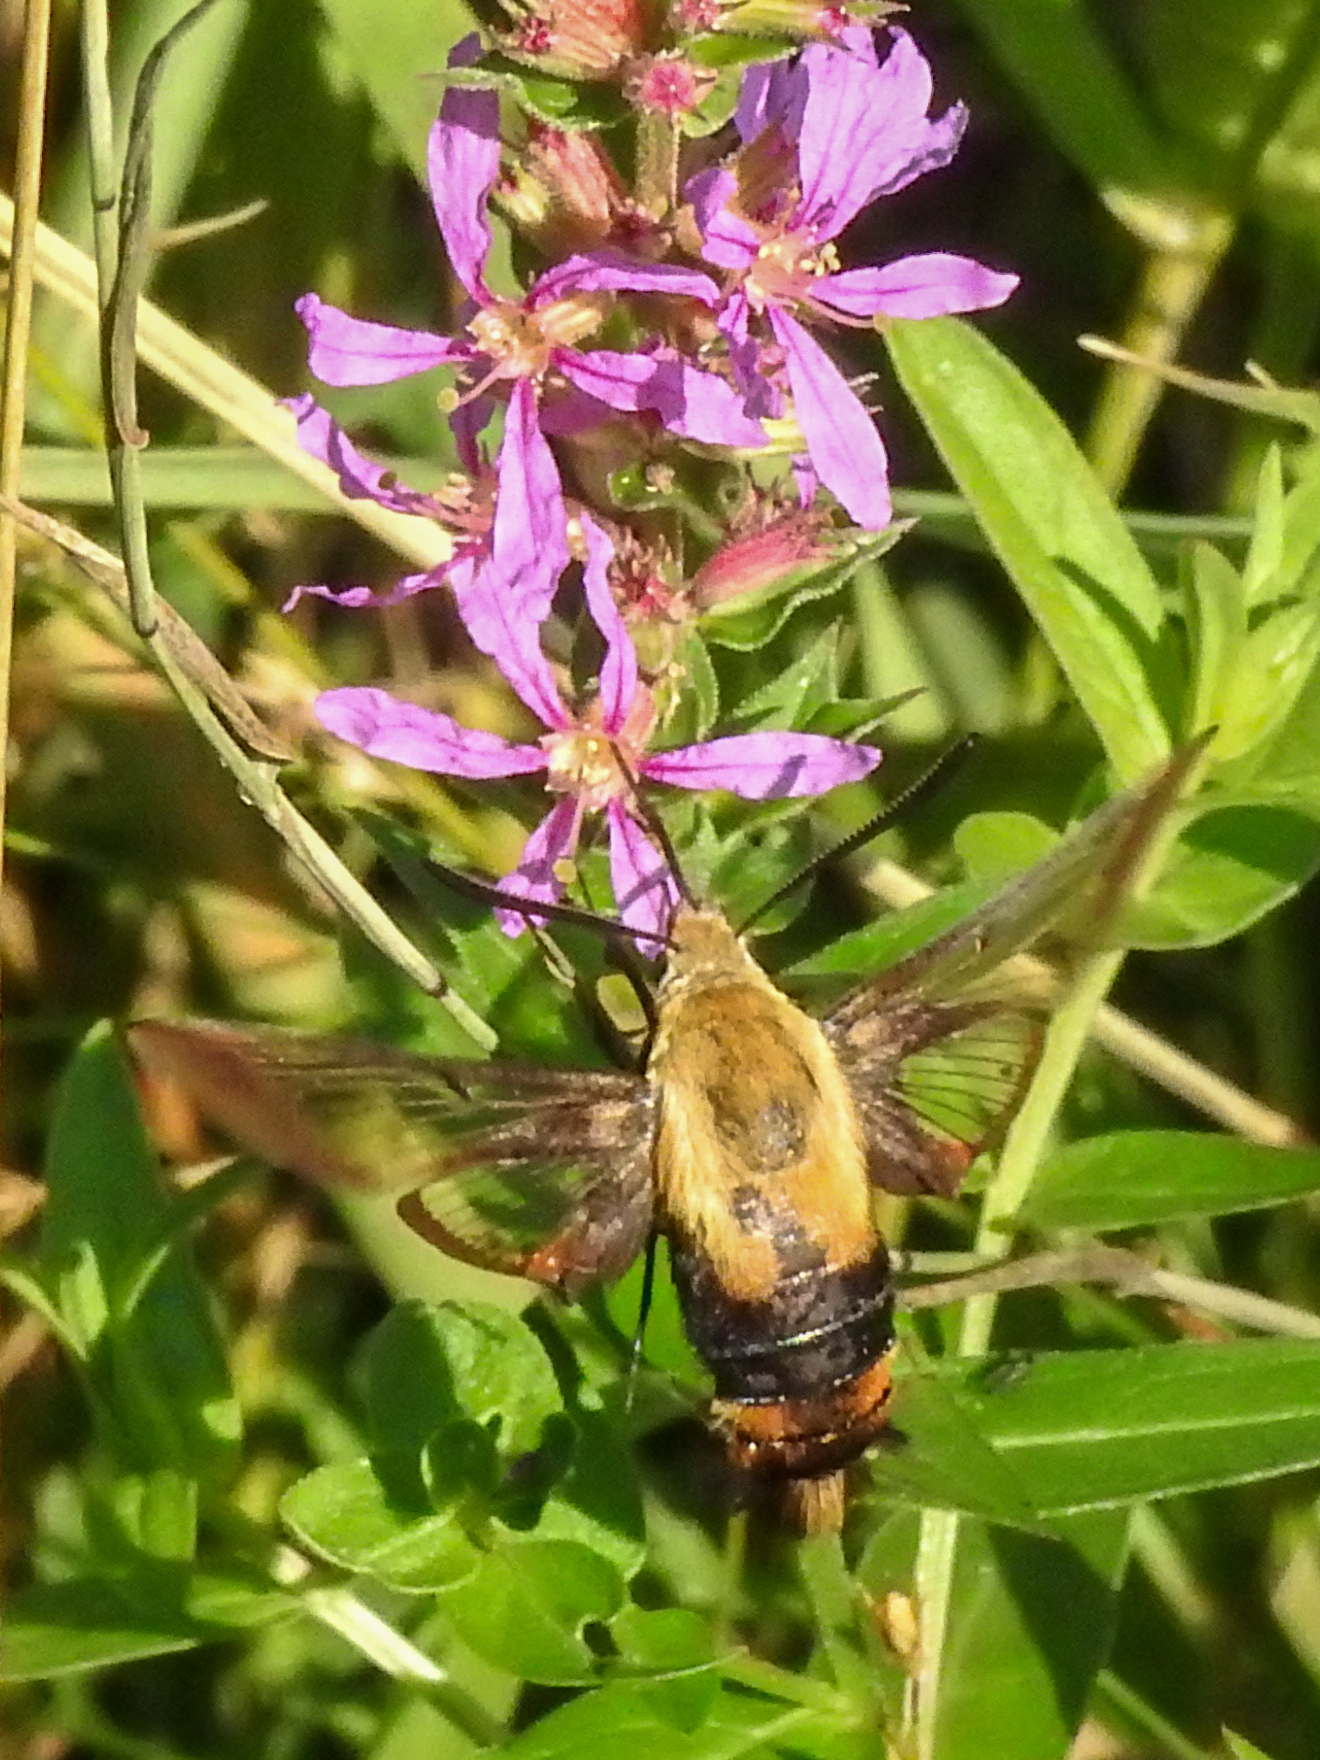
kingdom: Animalia
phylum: Arthropoda
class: Insecta
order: Lepidoptera
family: Sphingidae
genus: Hemaris
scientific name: Hemaris diffinis
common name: Bumblebee moth
